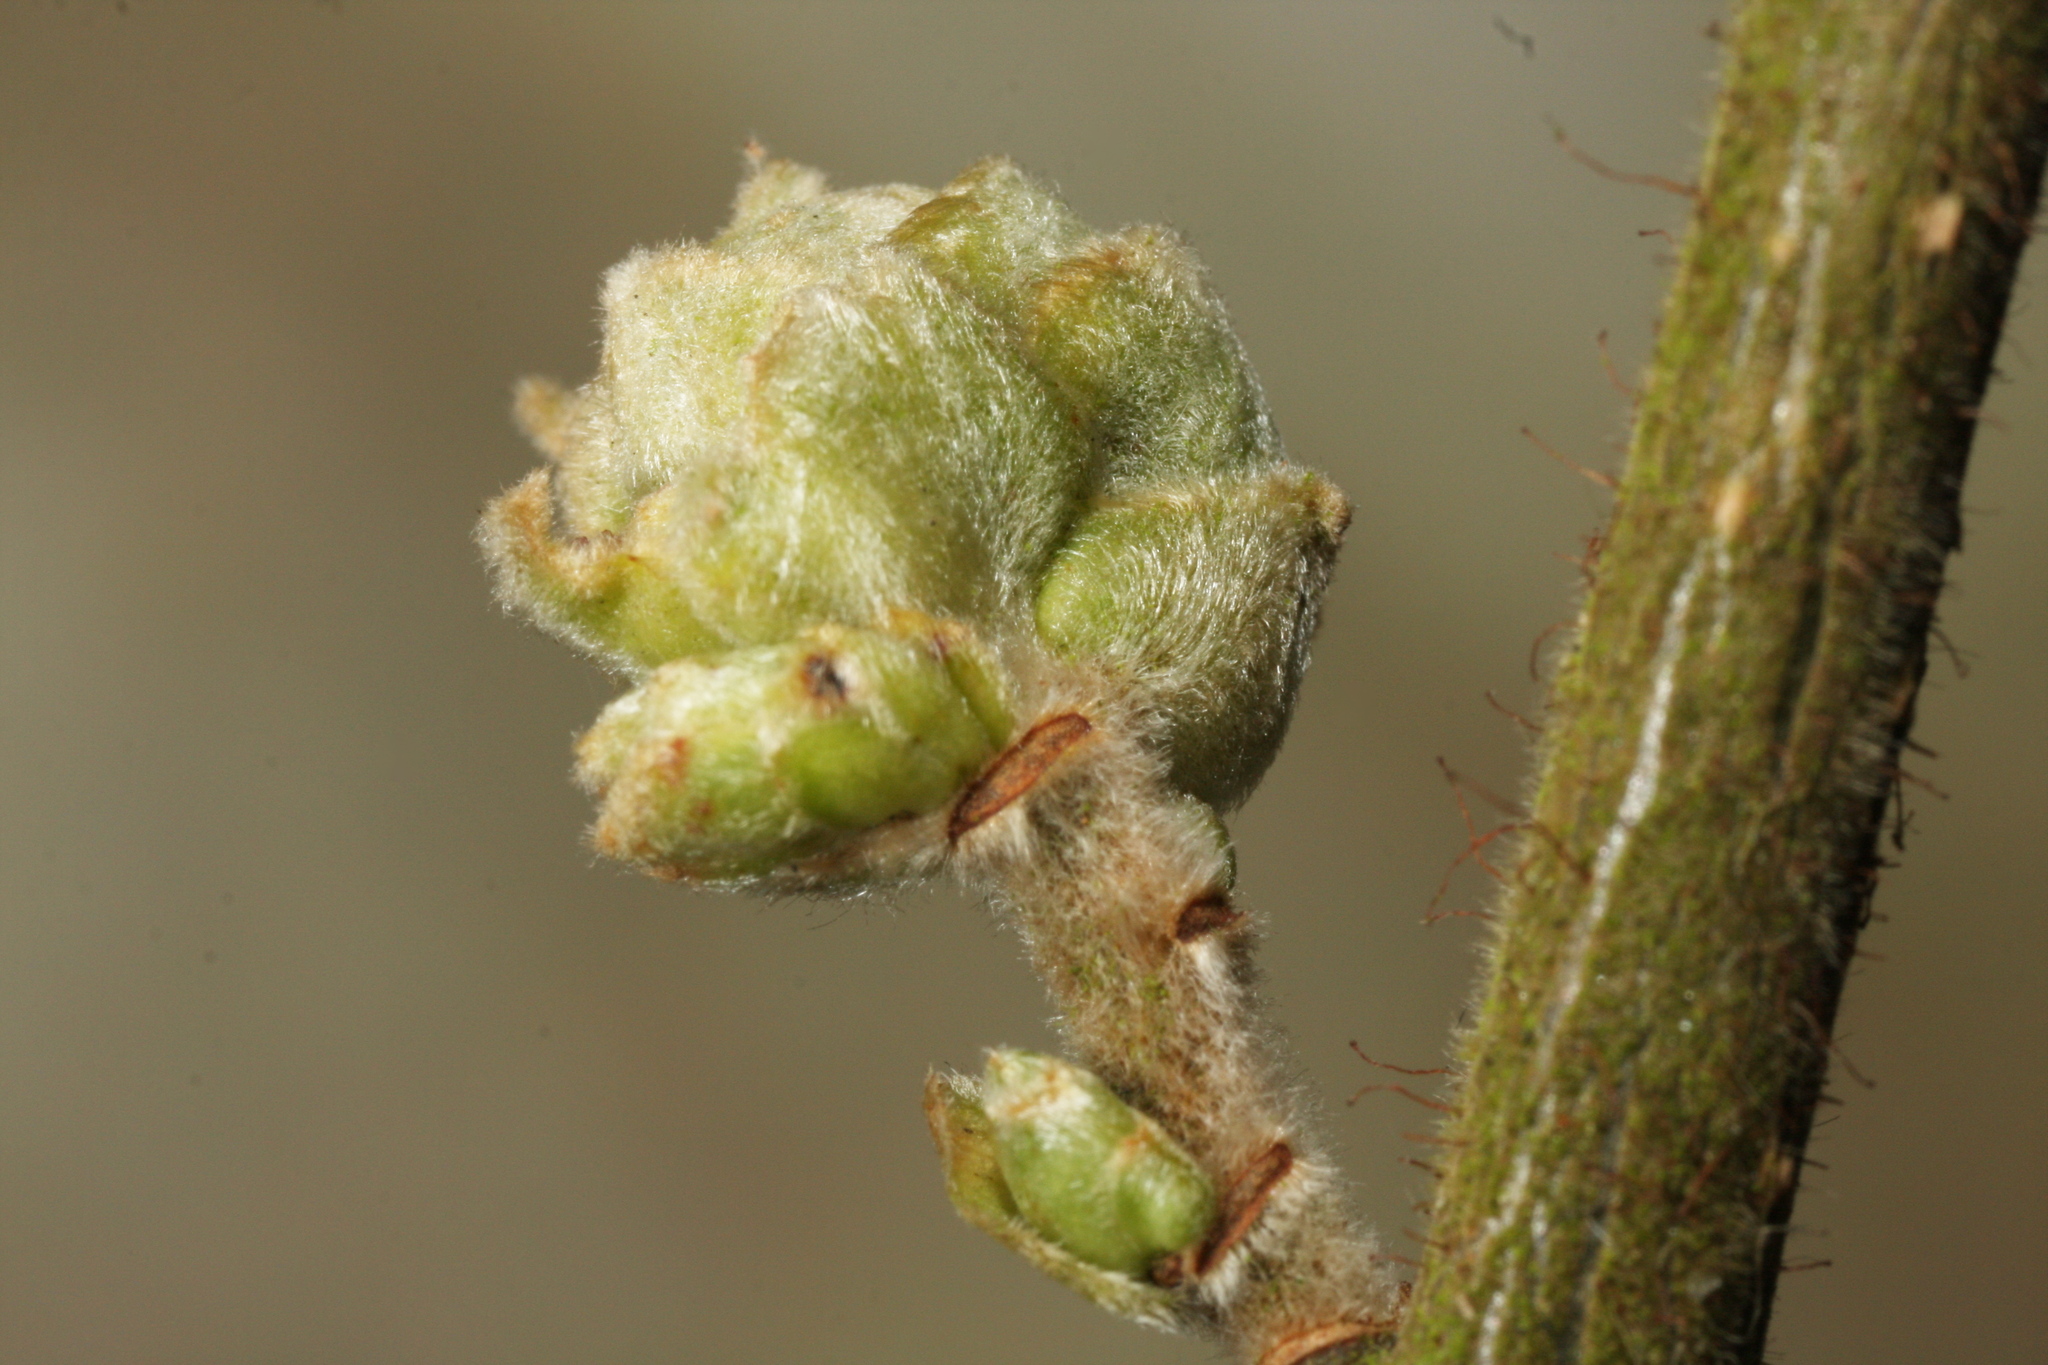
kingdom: Animalia
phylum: Arthropoda
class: Arachnida
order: Trombidiformes
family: Phytoptidae
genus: Phytoptus
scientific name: Phytoptus avellanae
